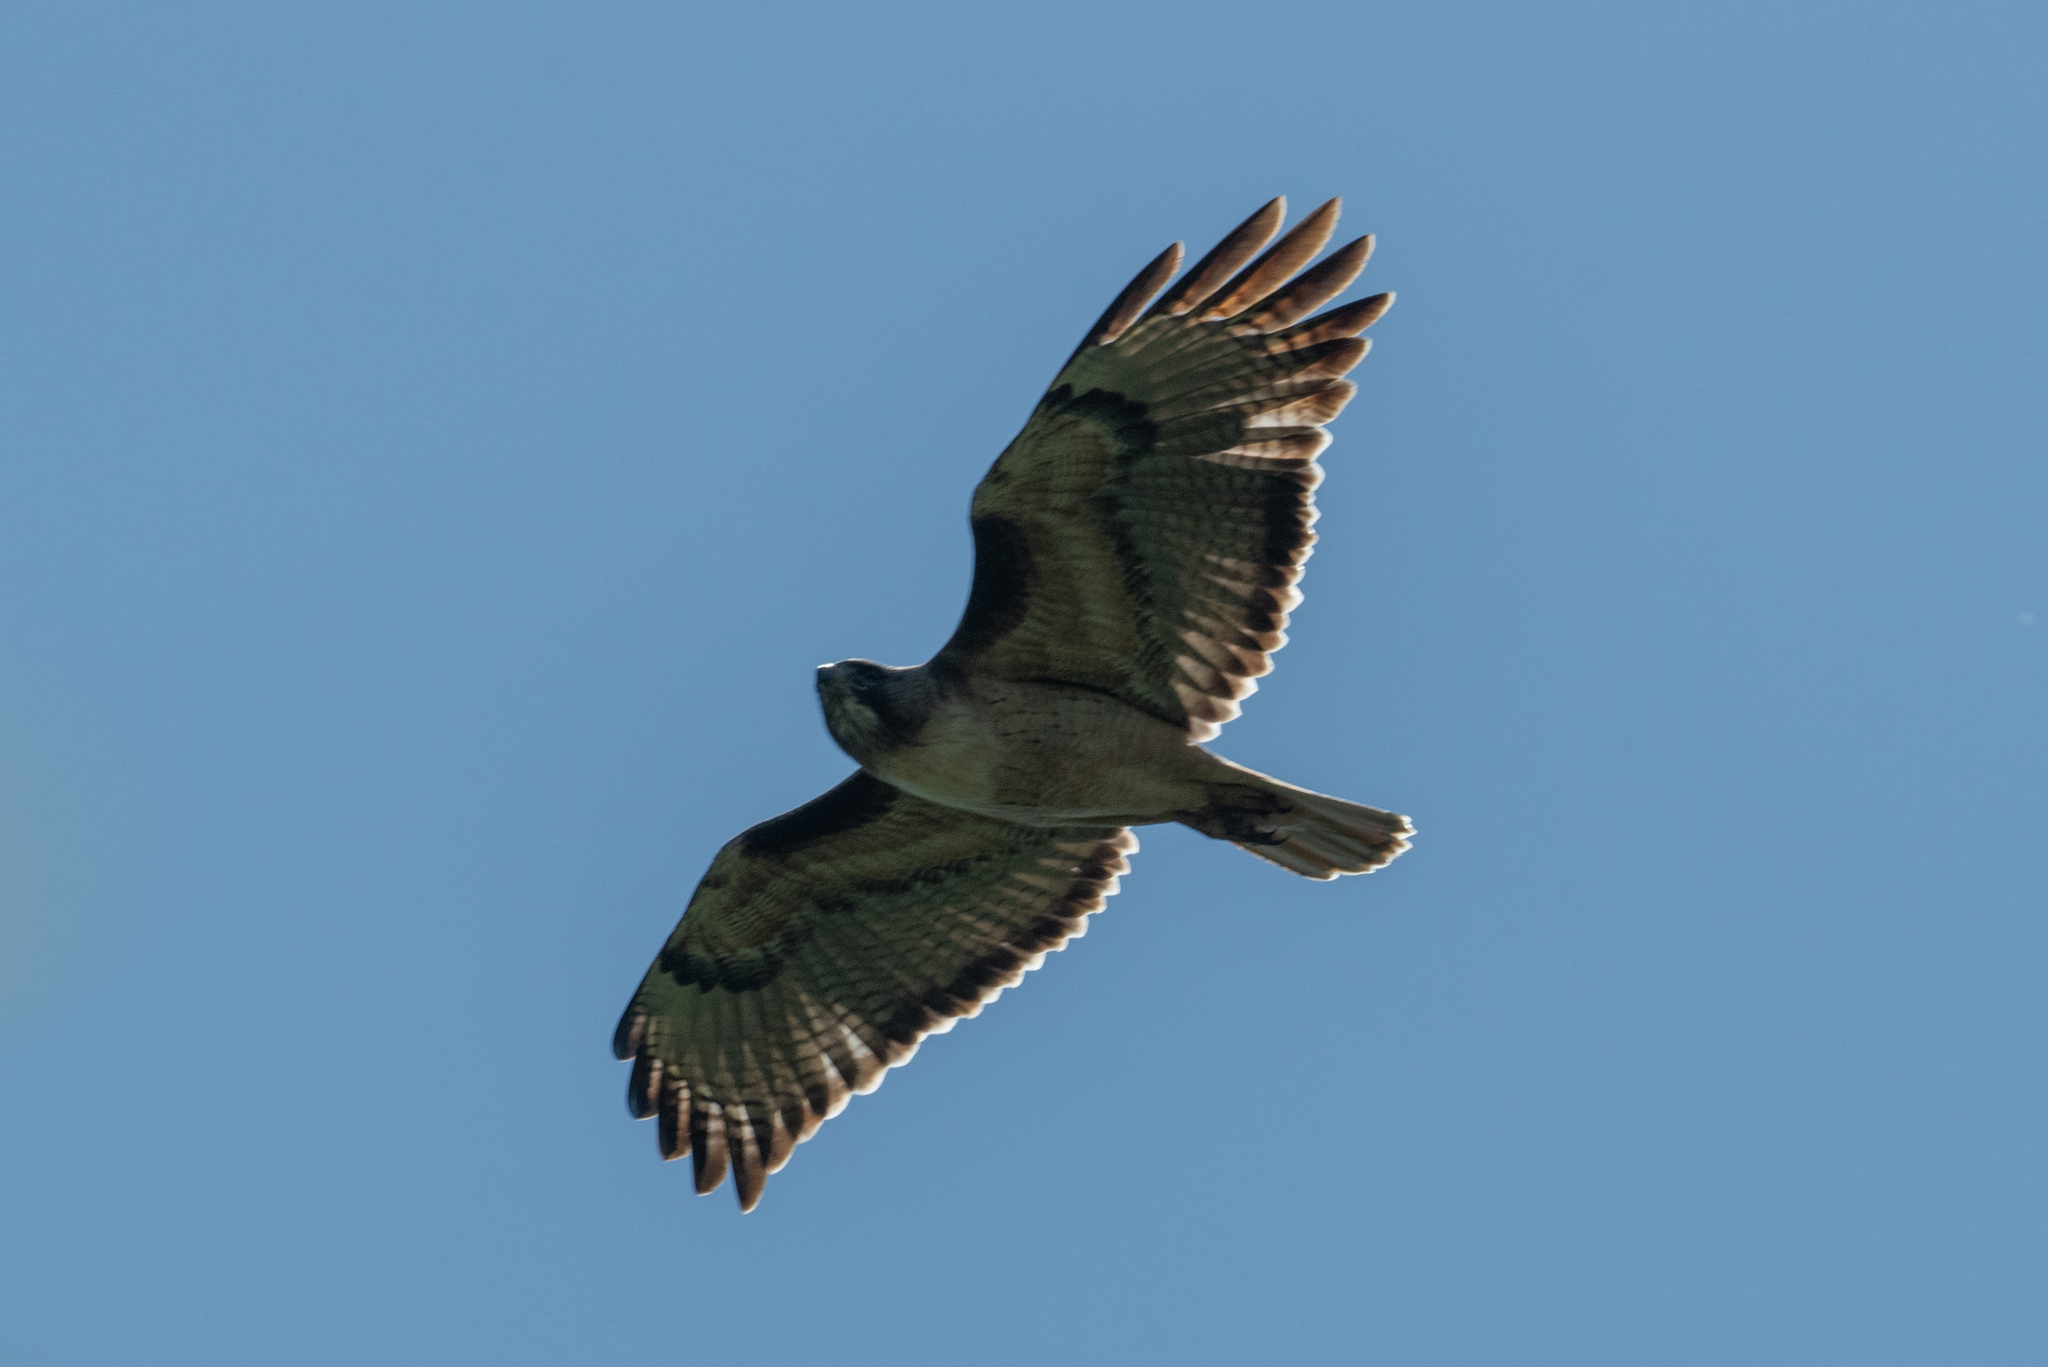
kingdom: Animalia
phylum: Chordata
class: Aves
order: Accipitriformes
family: Accipitridae
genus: Buteo
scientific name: Buteo jamaicensis
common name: Red-tailed hawk
